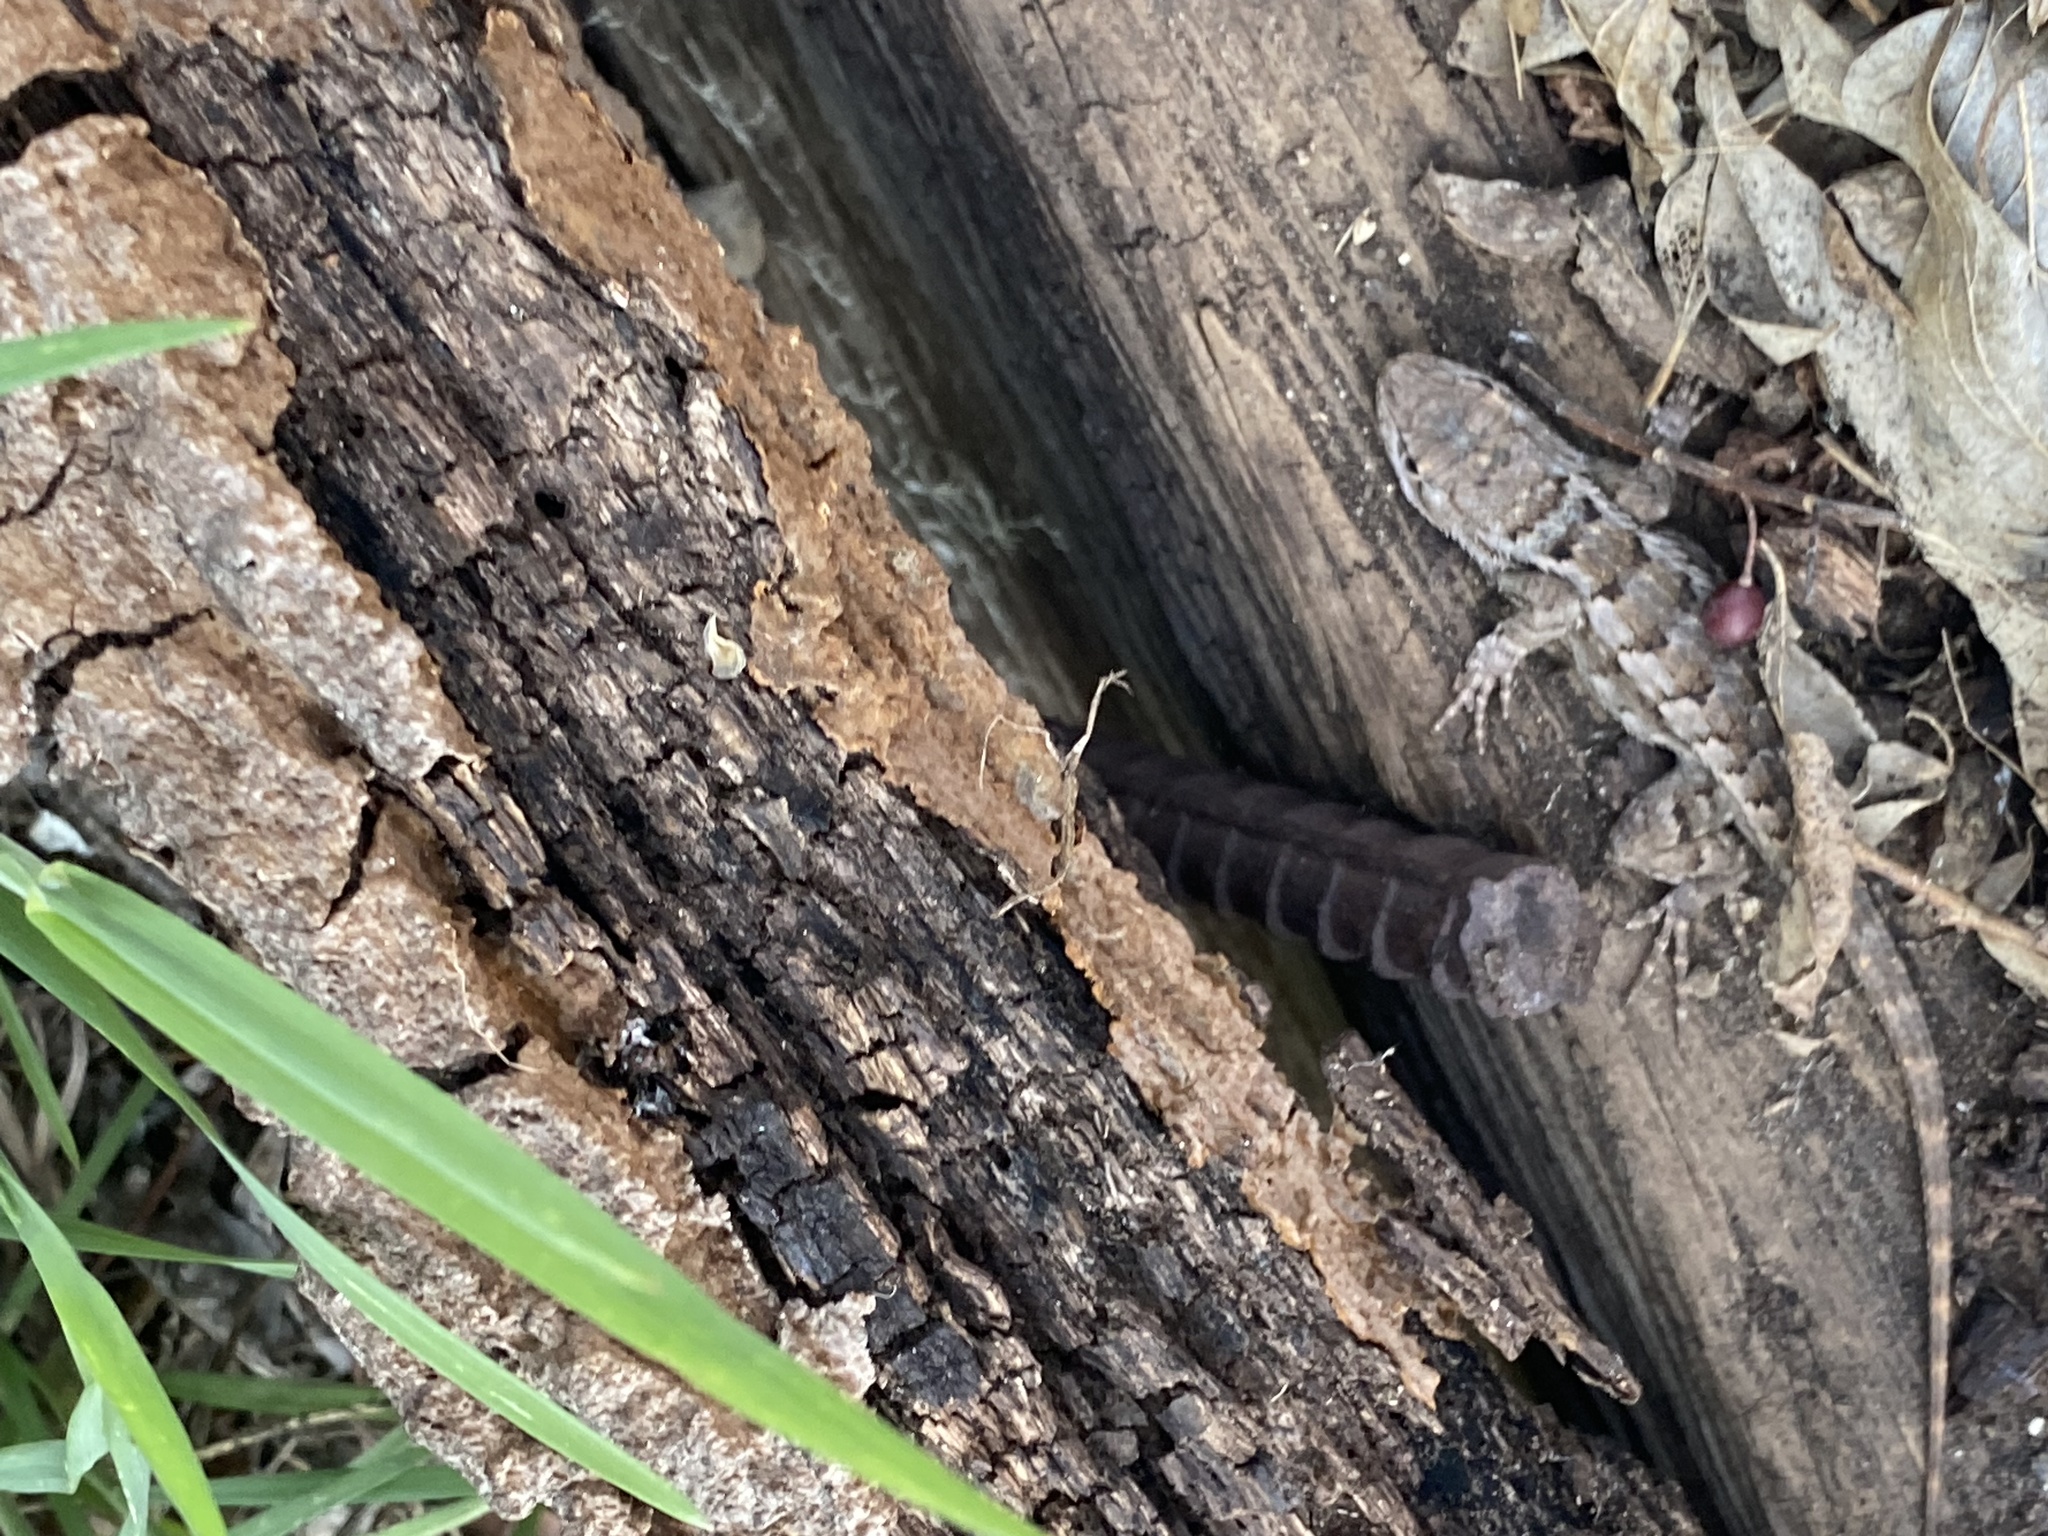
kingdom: Animalia
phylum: Chordata
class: Squamata
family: Phrynosomatidae
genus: Sceloporus
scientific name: Sceloporus olivaceus
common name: Texas spiny lizard
